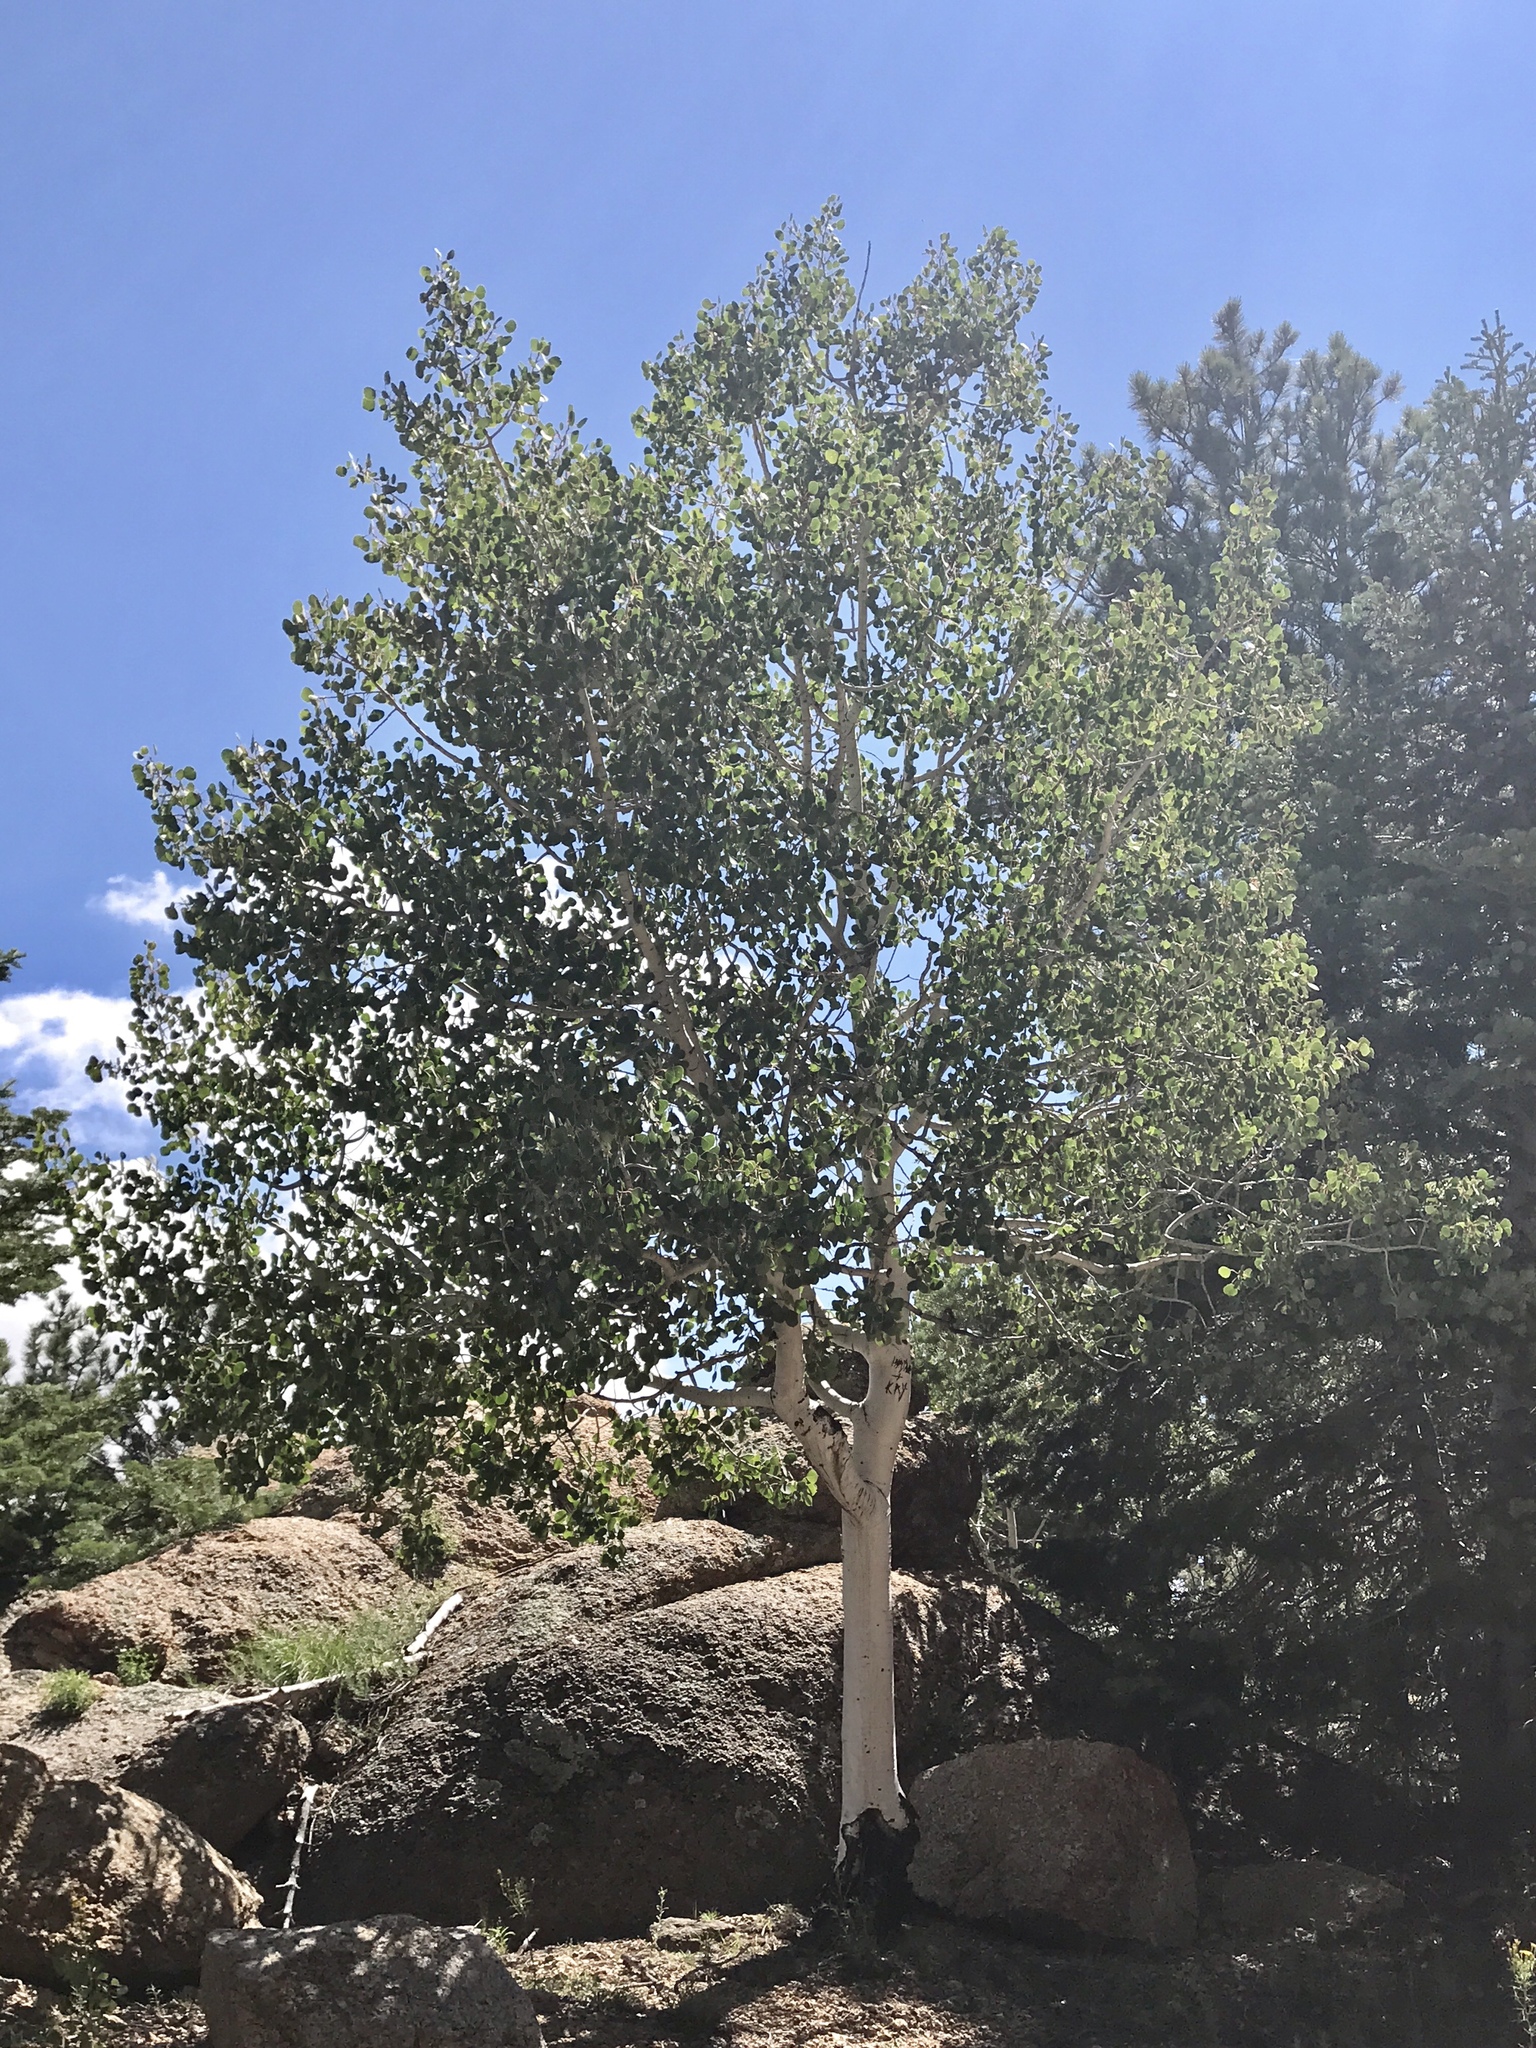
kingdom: Plantae
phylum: Tracheophyta
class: Magnoliopsida
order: Malpighiales
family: Salicaceae
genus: Populus
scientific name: Populus tremuloides
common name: Quaking aspen
